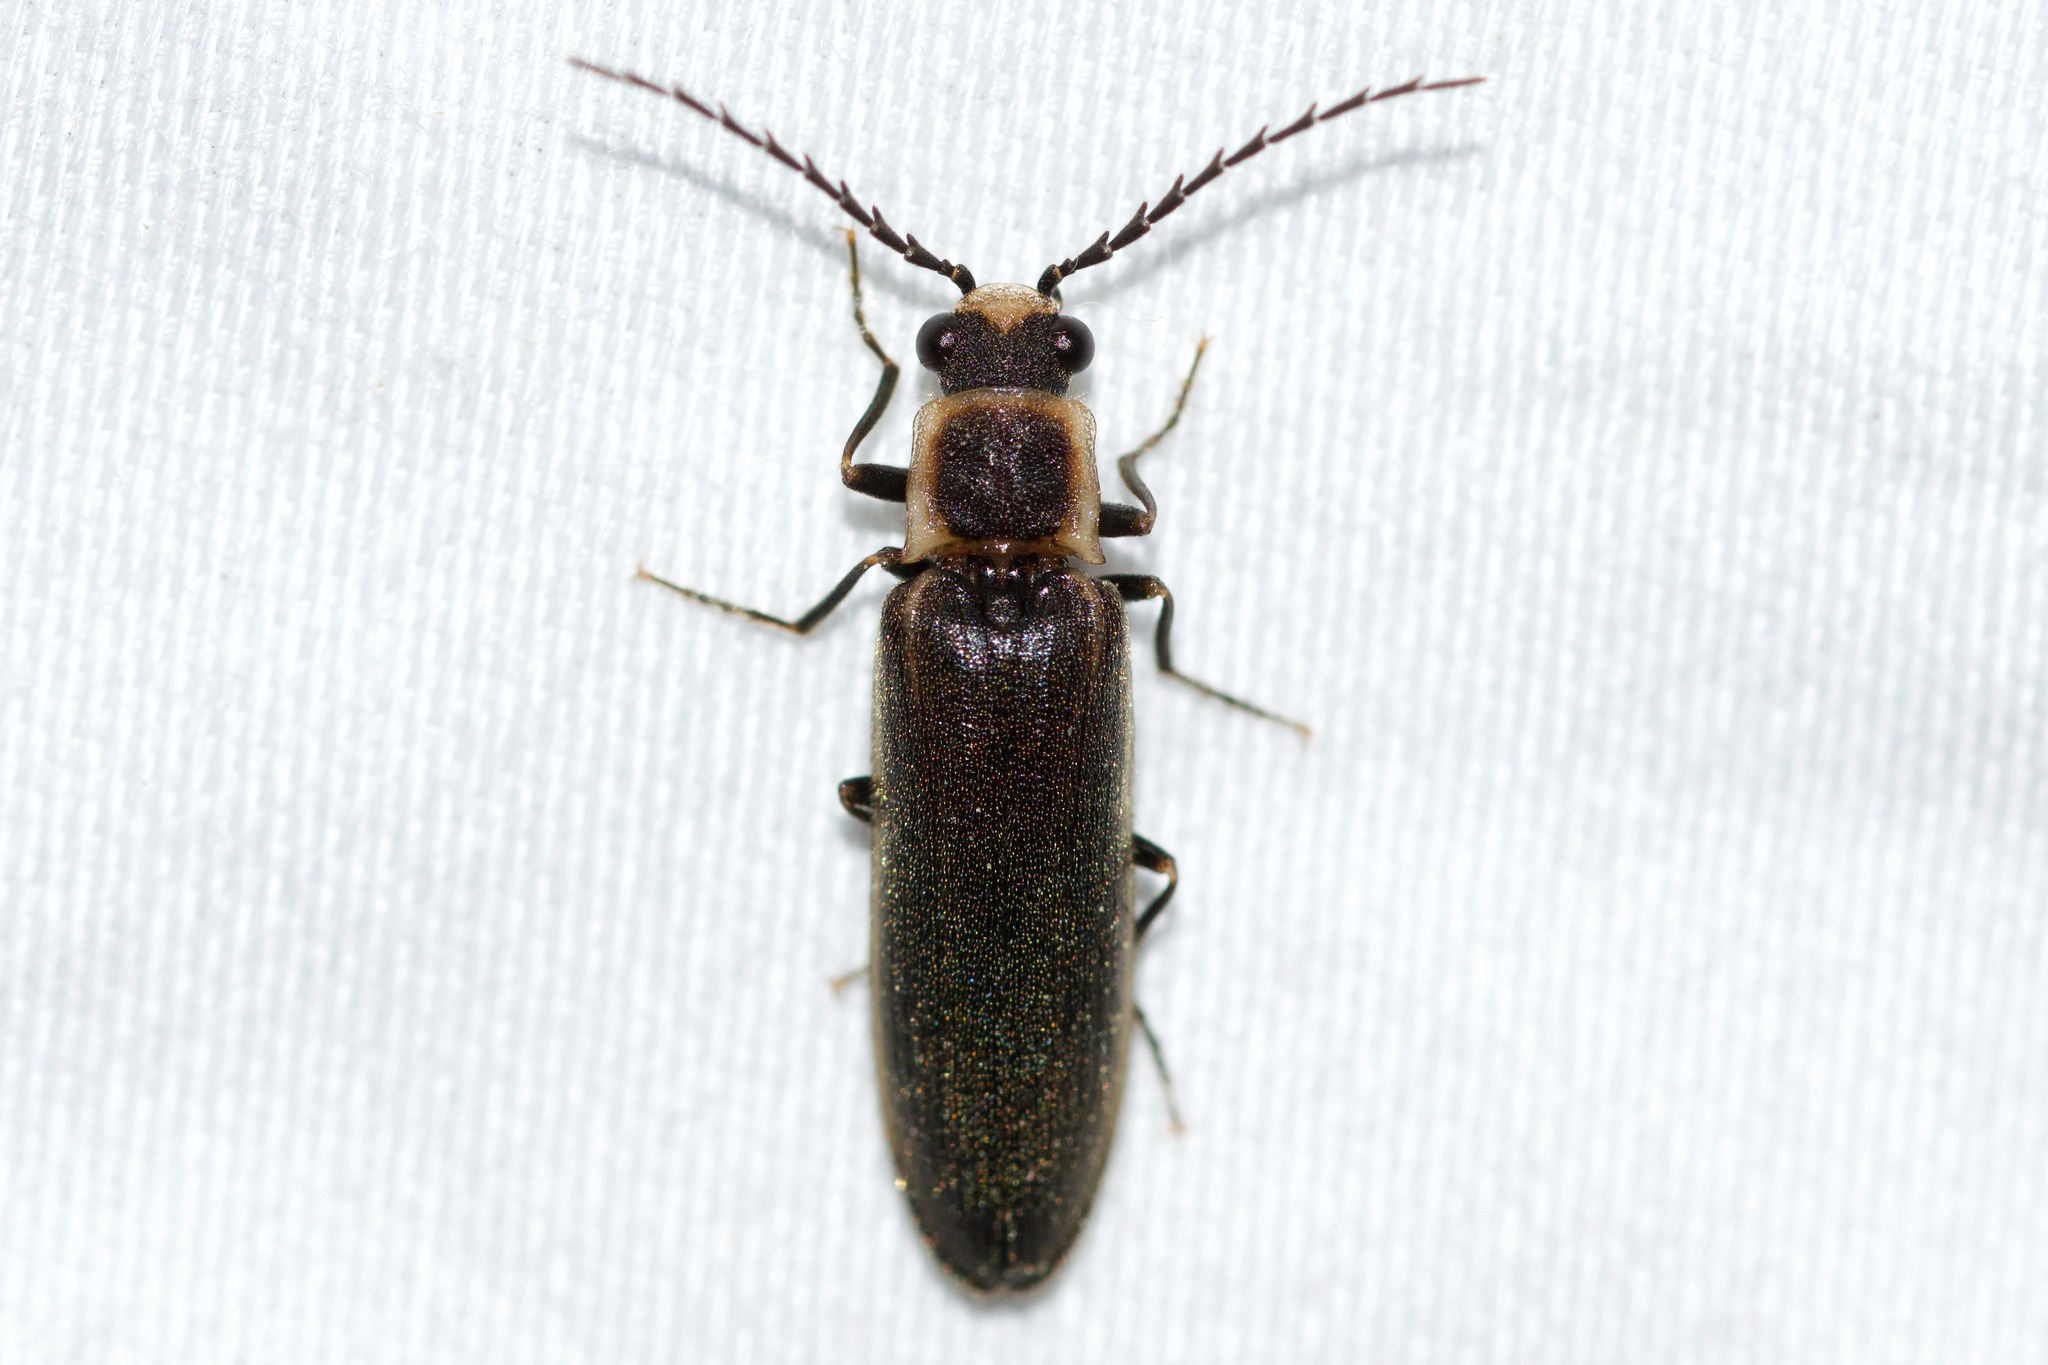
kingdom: Animalia
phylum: Arthropoda
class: Insecta
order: Coleoptera
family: Elateridae
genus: Denticollis
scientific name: Denticollis denticornis
